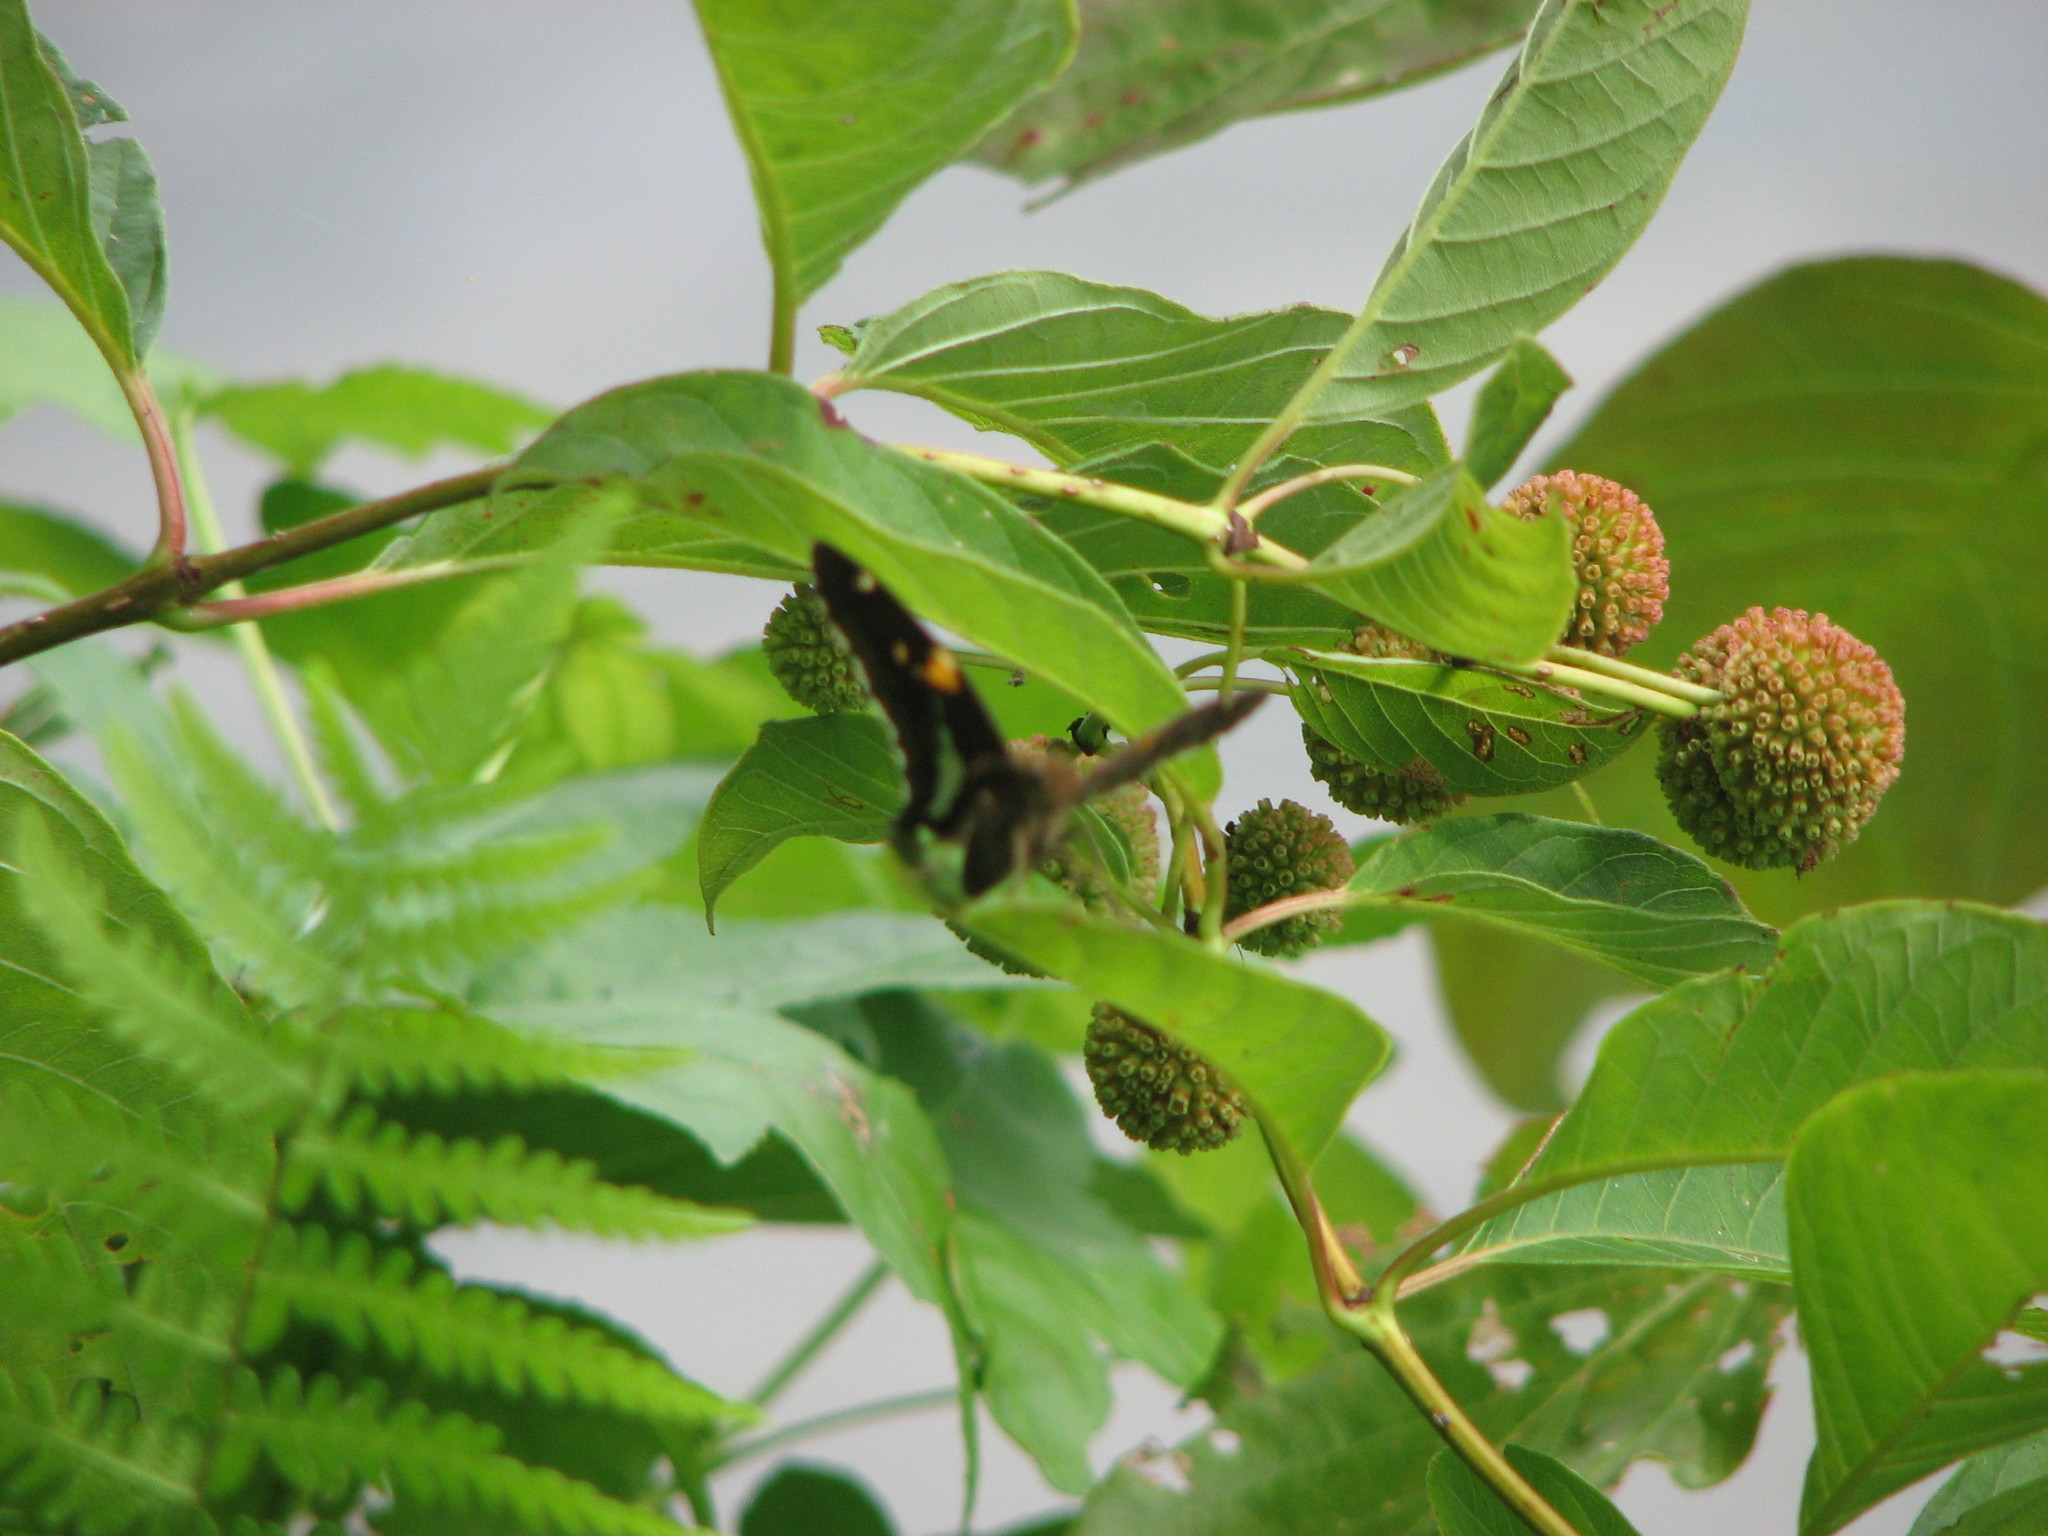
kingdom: Animalia
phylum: Arthropoda
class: Insecta
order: Lepidoptera
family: Hesperiidae
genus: Epargyreus
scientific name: Epargyreus clarus
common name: Silver-spotted skipper
